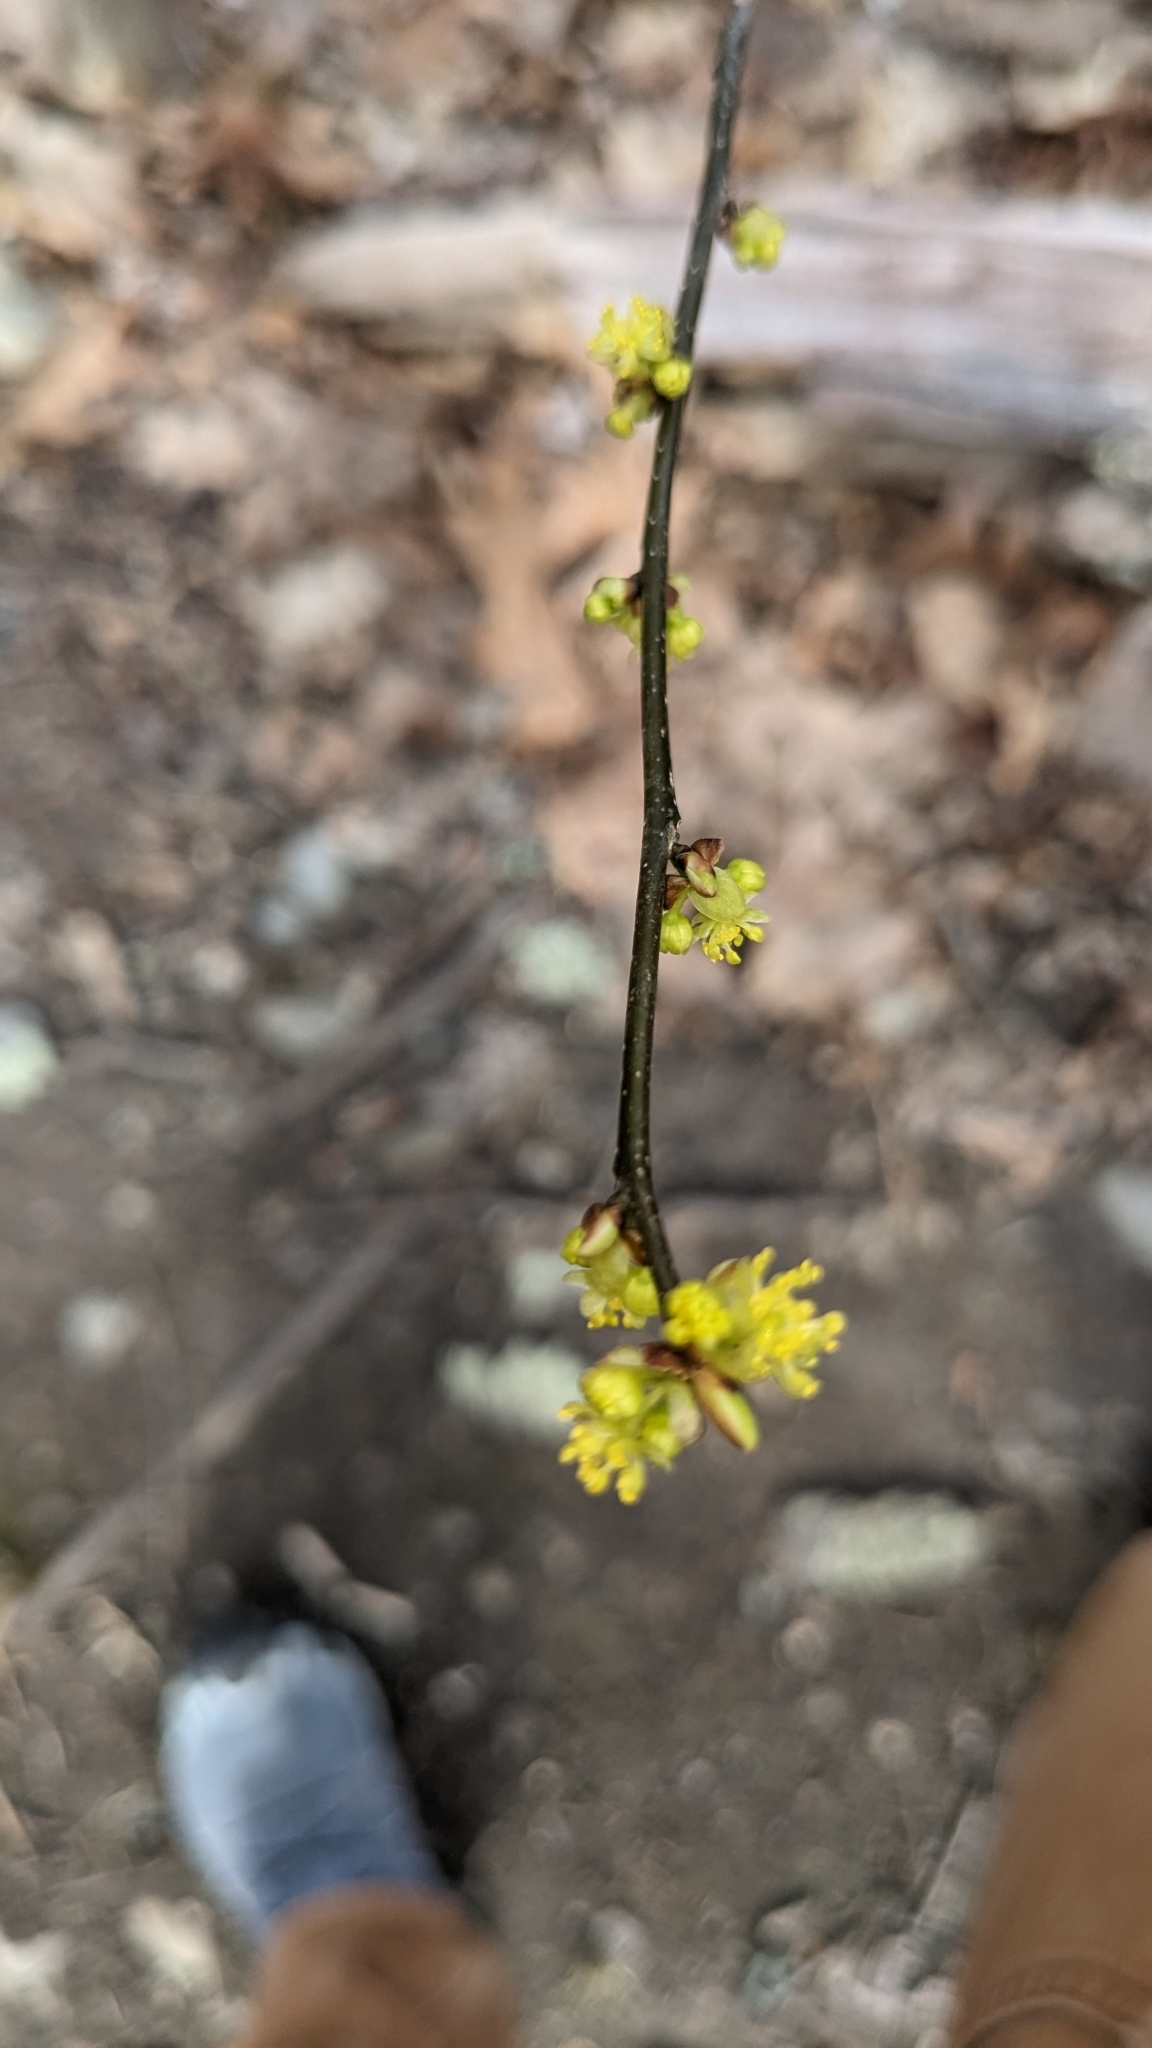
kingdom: Plantae
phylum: Tracheophyta
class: Magnoliopsida
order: Laurales
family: Lauraceae
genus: Lindera
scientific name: Lindera benzoin
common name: Spicebush
